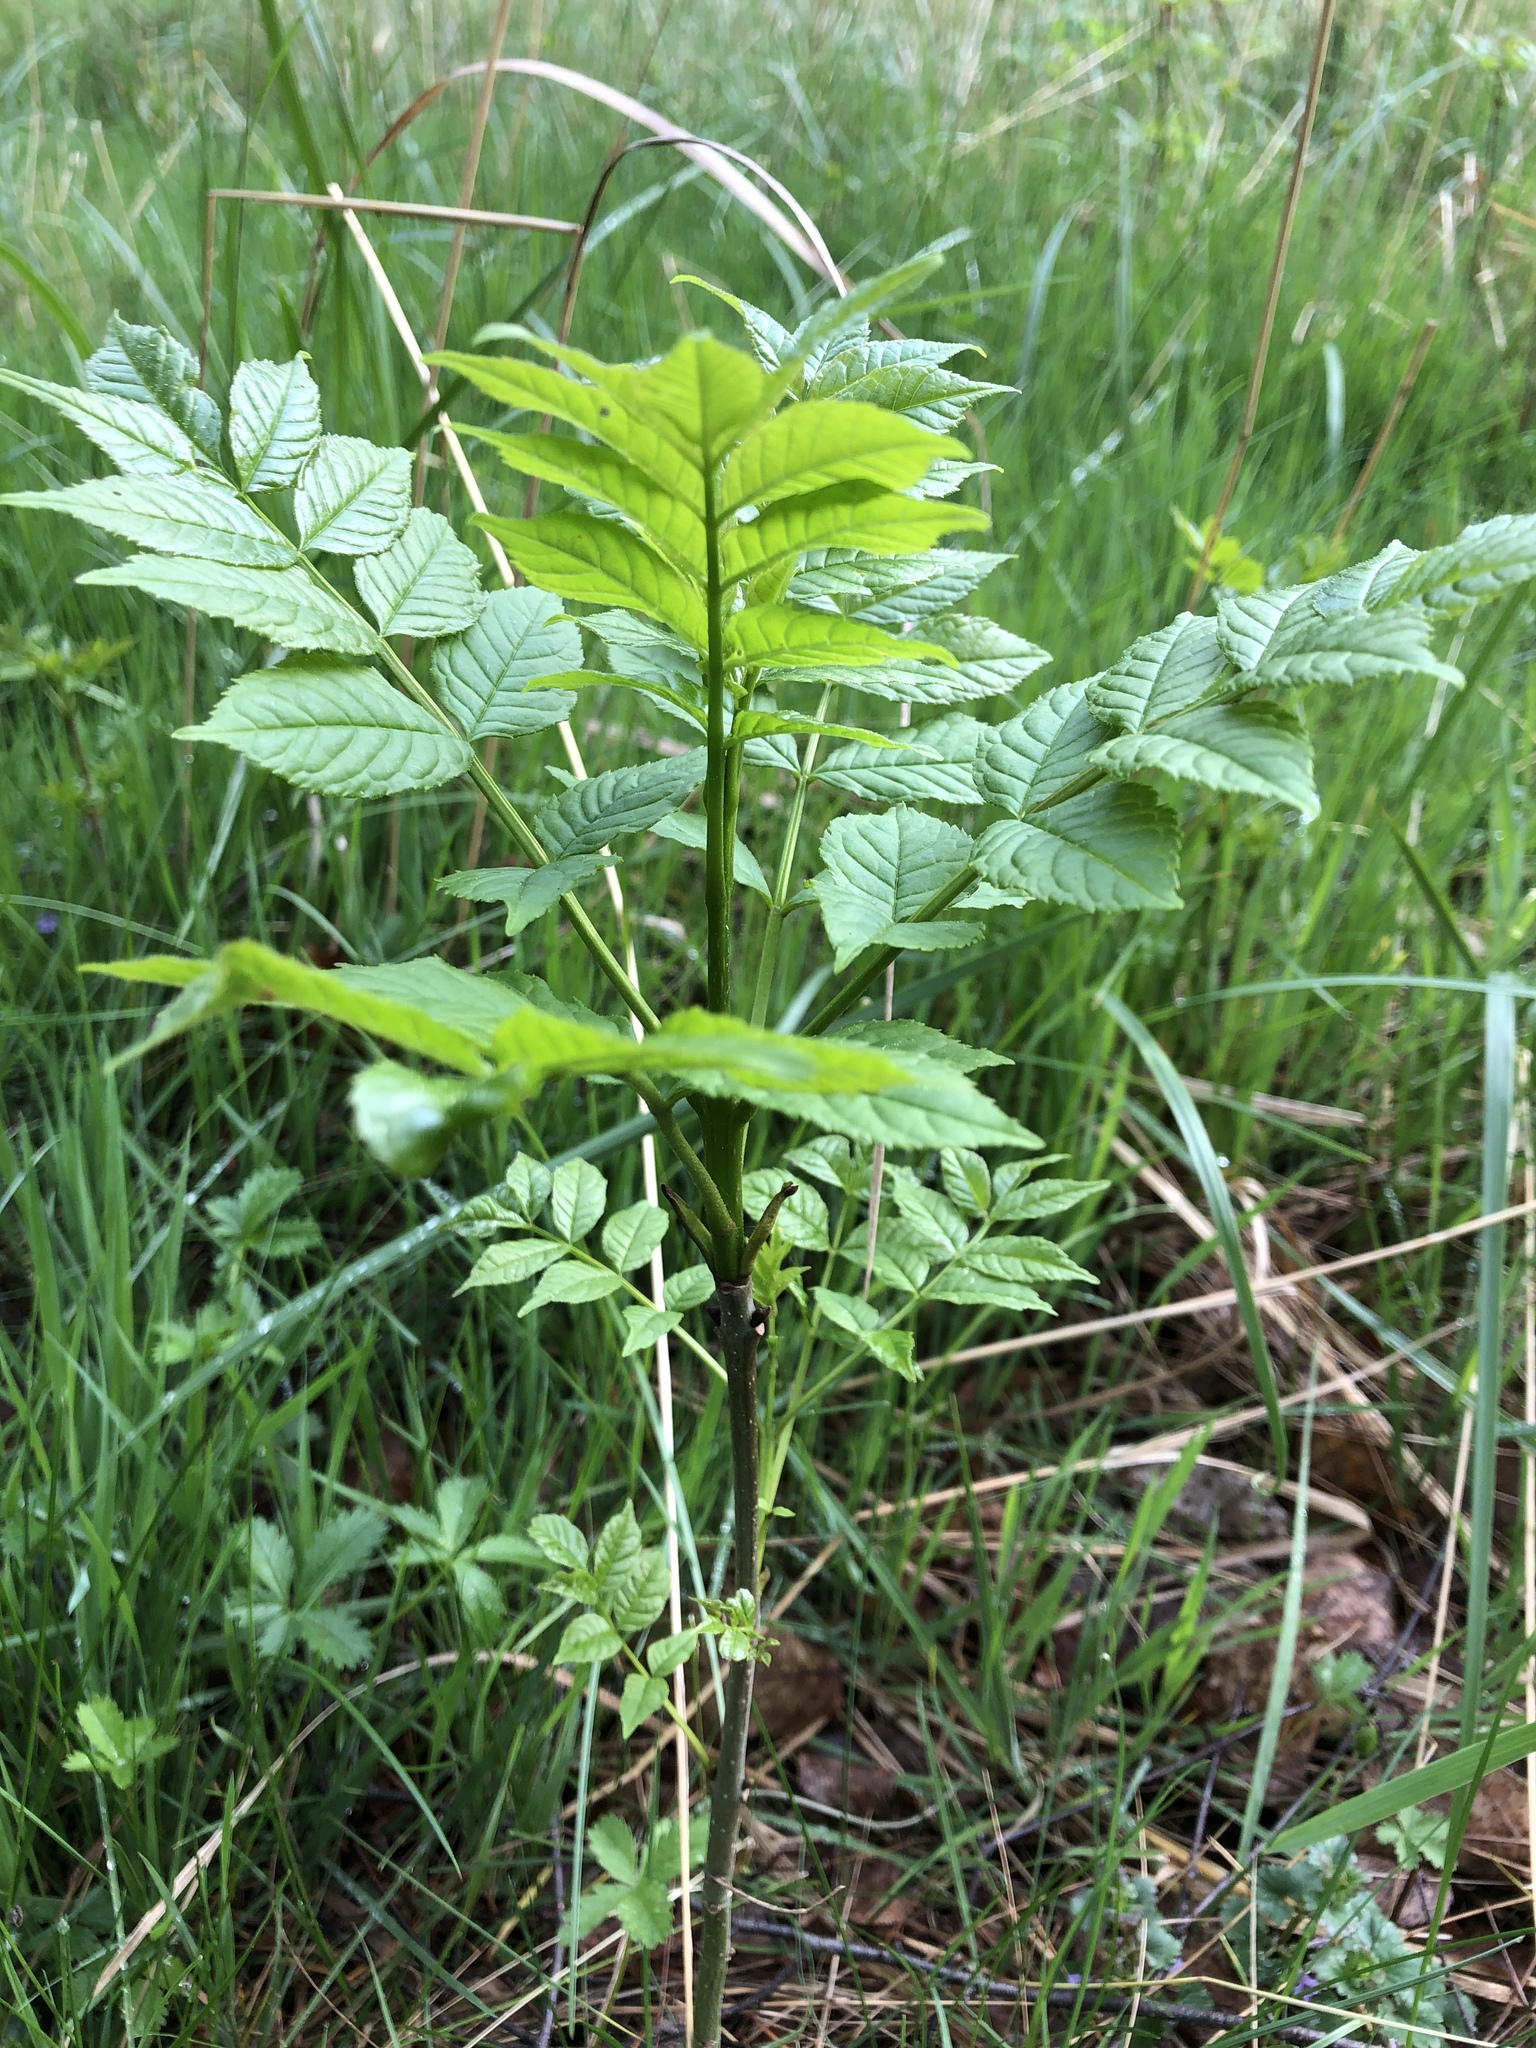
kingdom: Plantae
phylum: Tracheophyta
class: Magnoliopsida
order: Lamiales
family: Oleaceae
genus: Fraxinus
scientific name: Fraxinus excelsior
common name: European ash
